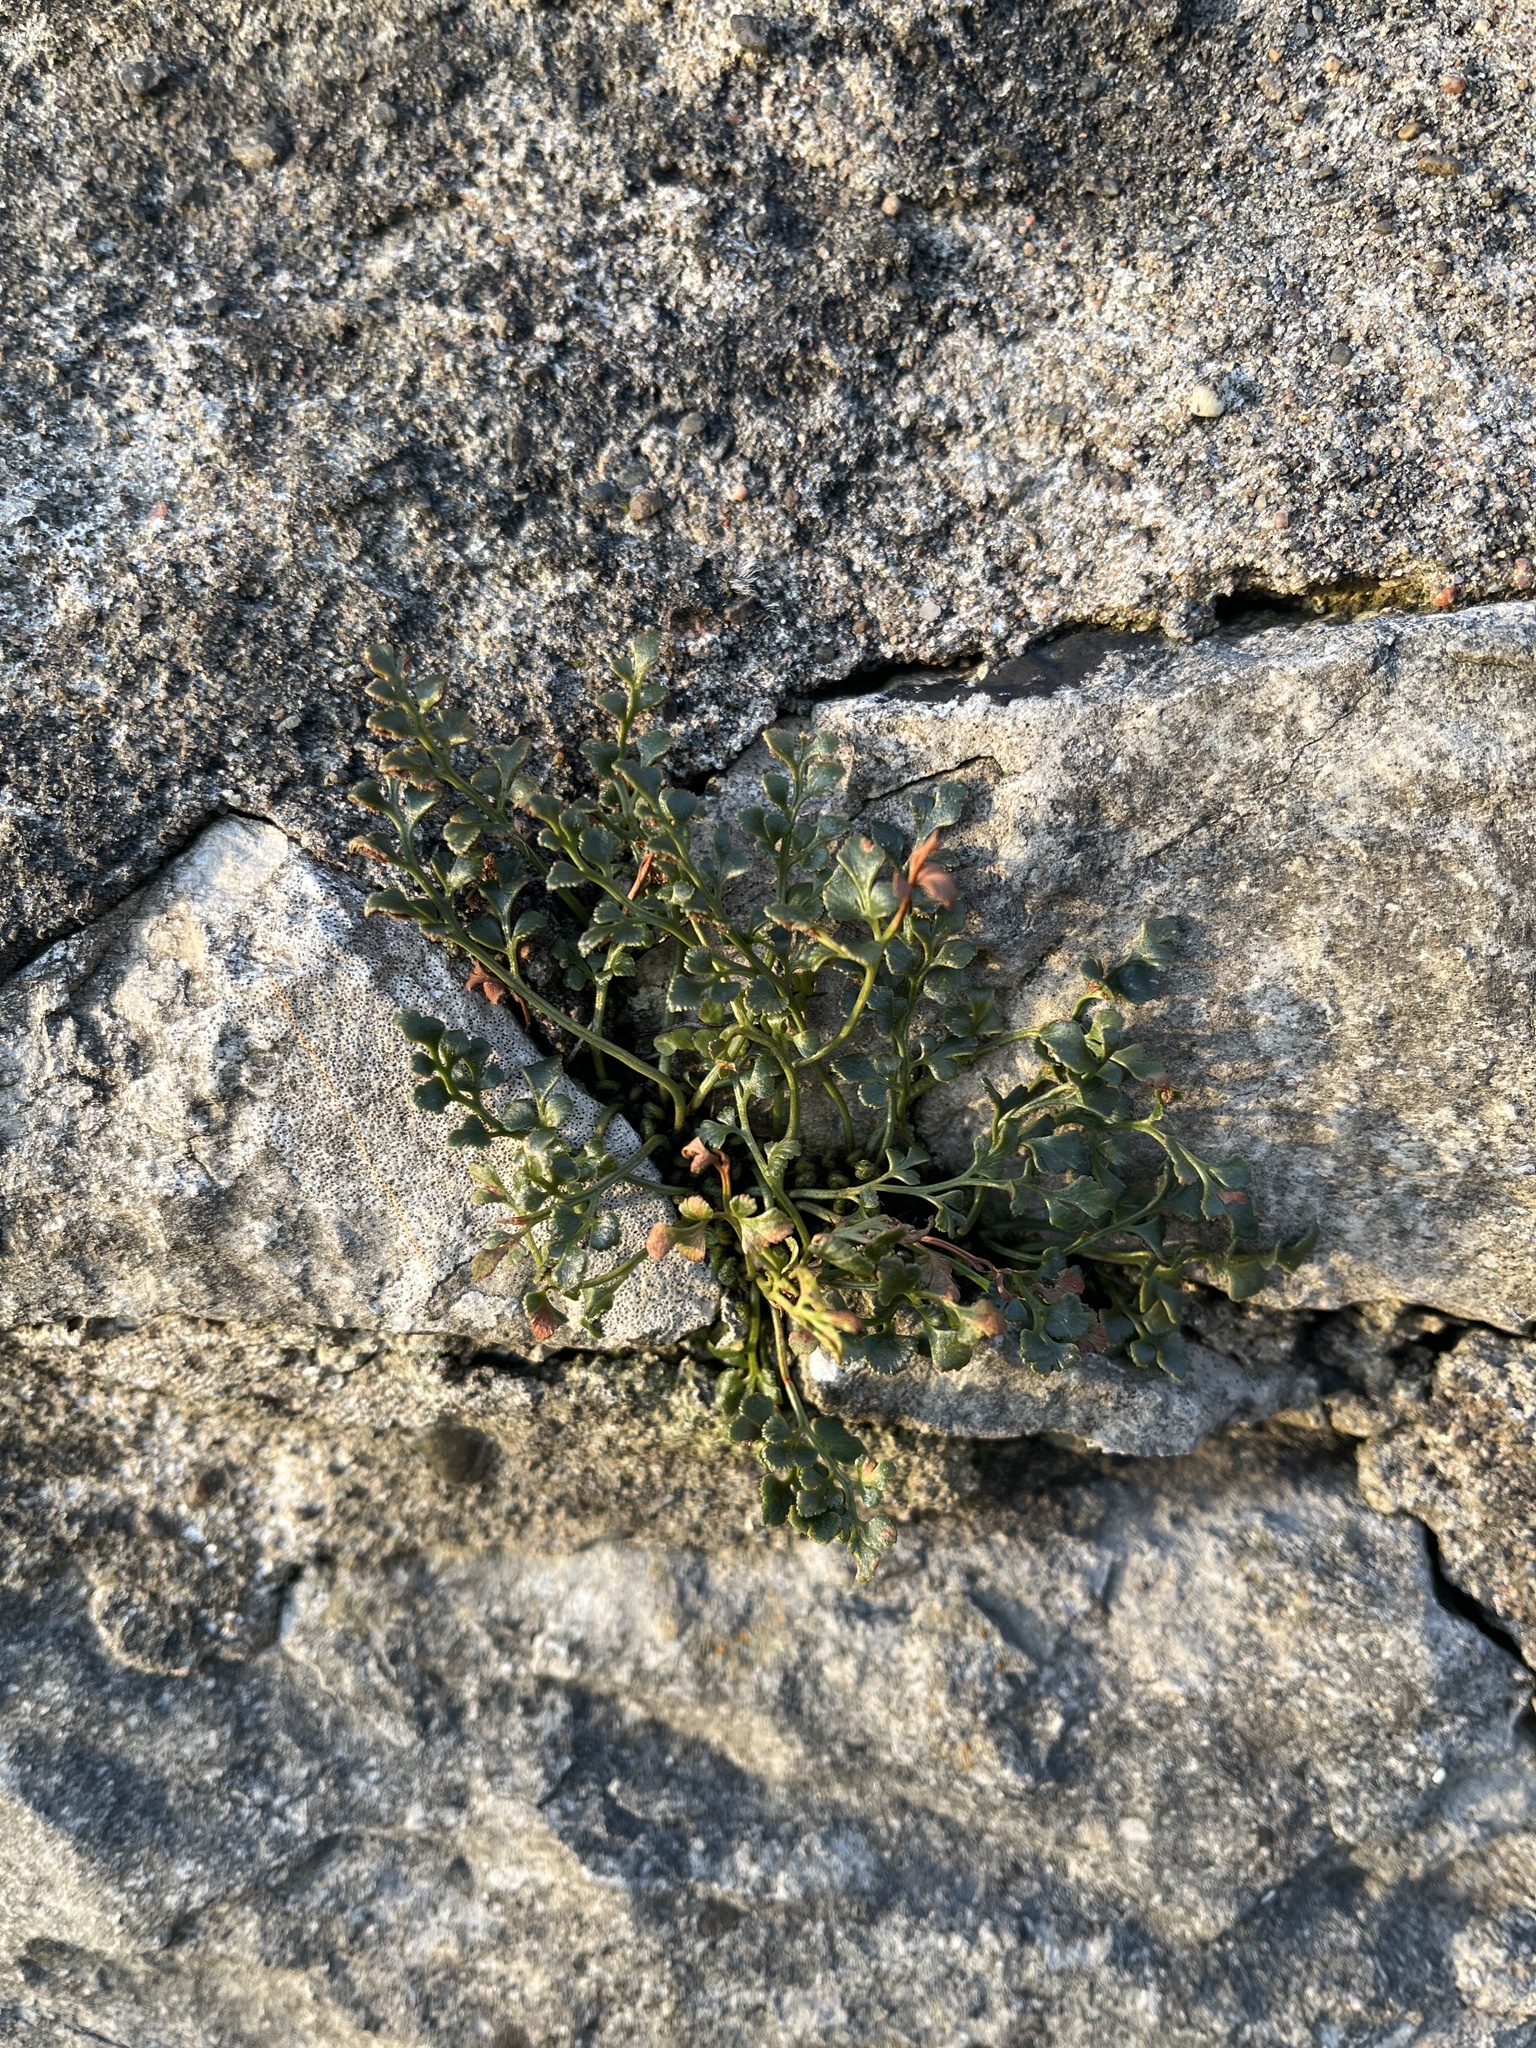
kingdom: Plantae
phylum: Tracheophyta
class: Polypodiopsida
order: Polypodiales
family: Aspleniaceae
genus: Asplenium
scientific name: Asplenium ruta-muraria
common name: Wall-rue
